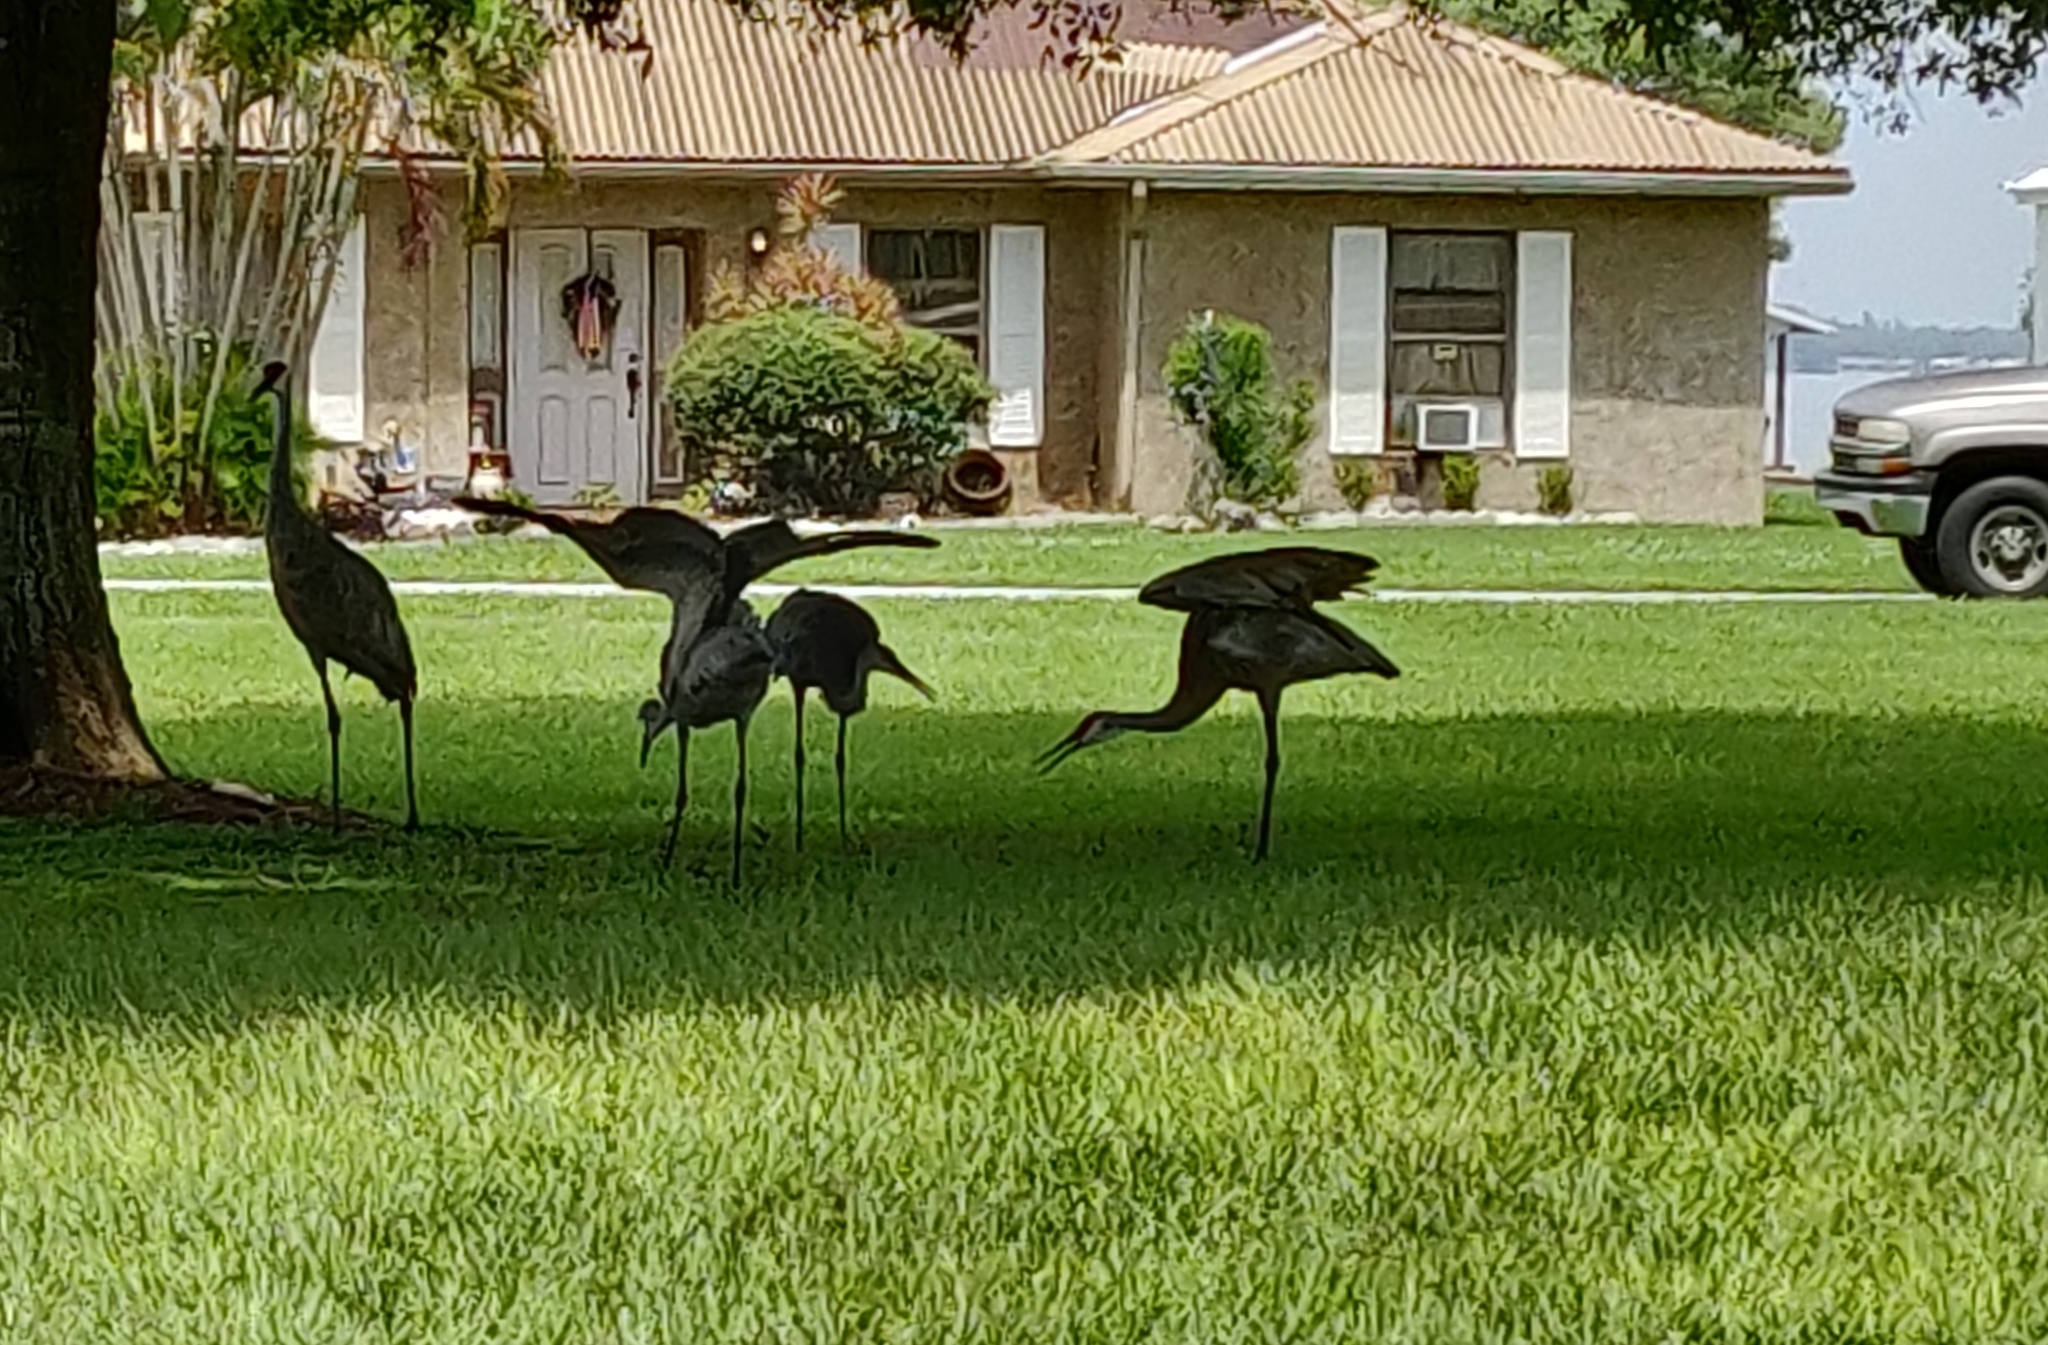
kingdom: Animalia
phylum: Chordata
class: Aves
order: Gruiformes
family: Gruidae
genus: Grus
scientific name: Grus canadensis
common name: Sandhill crane
